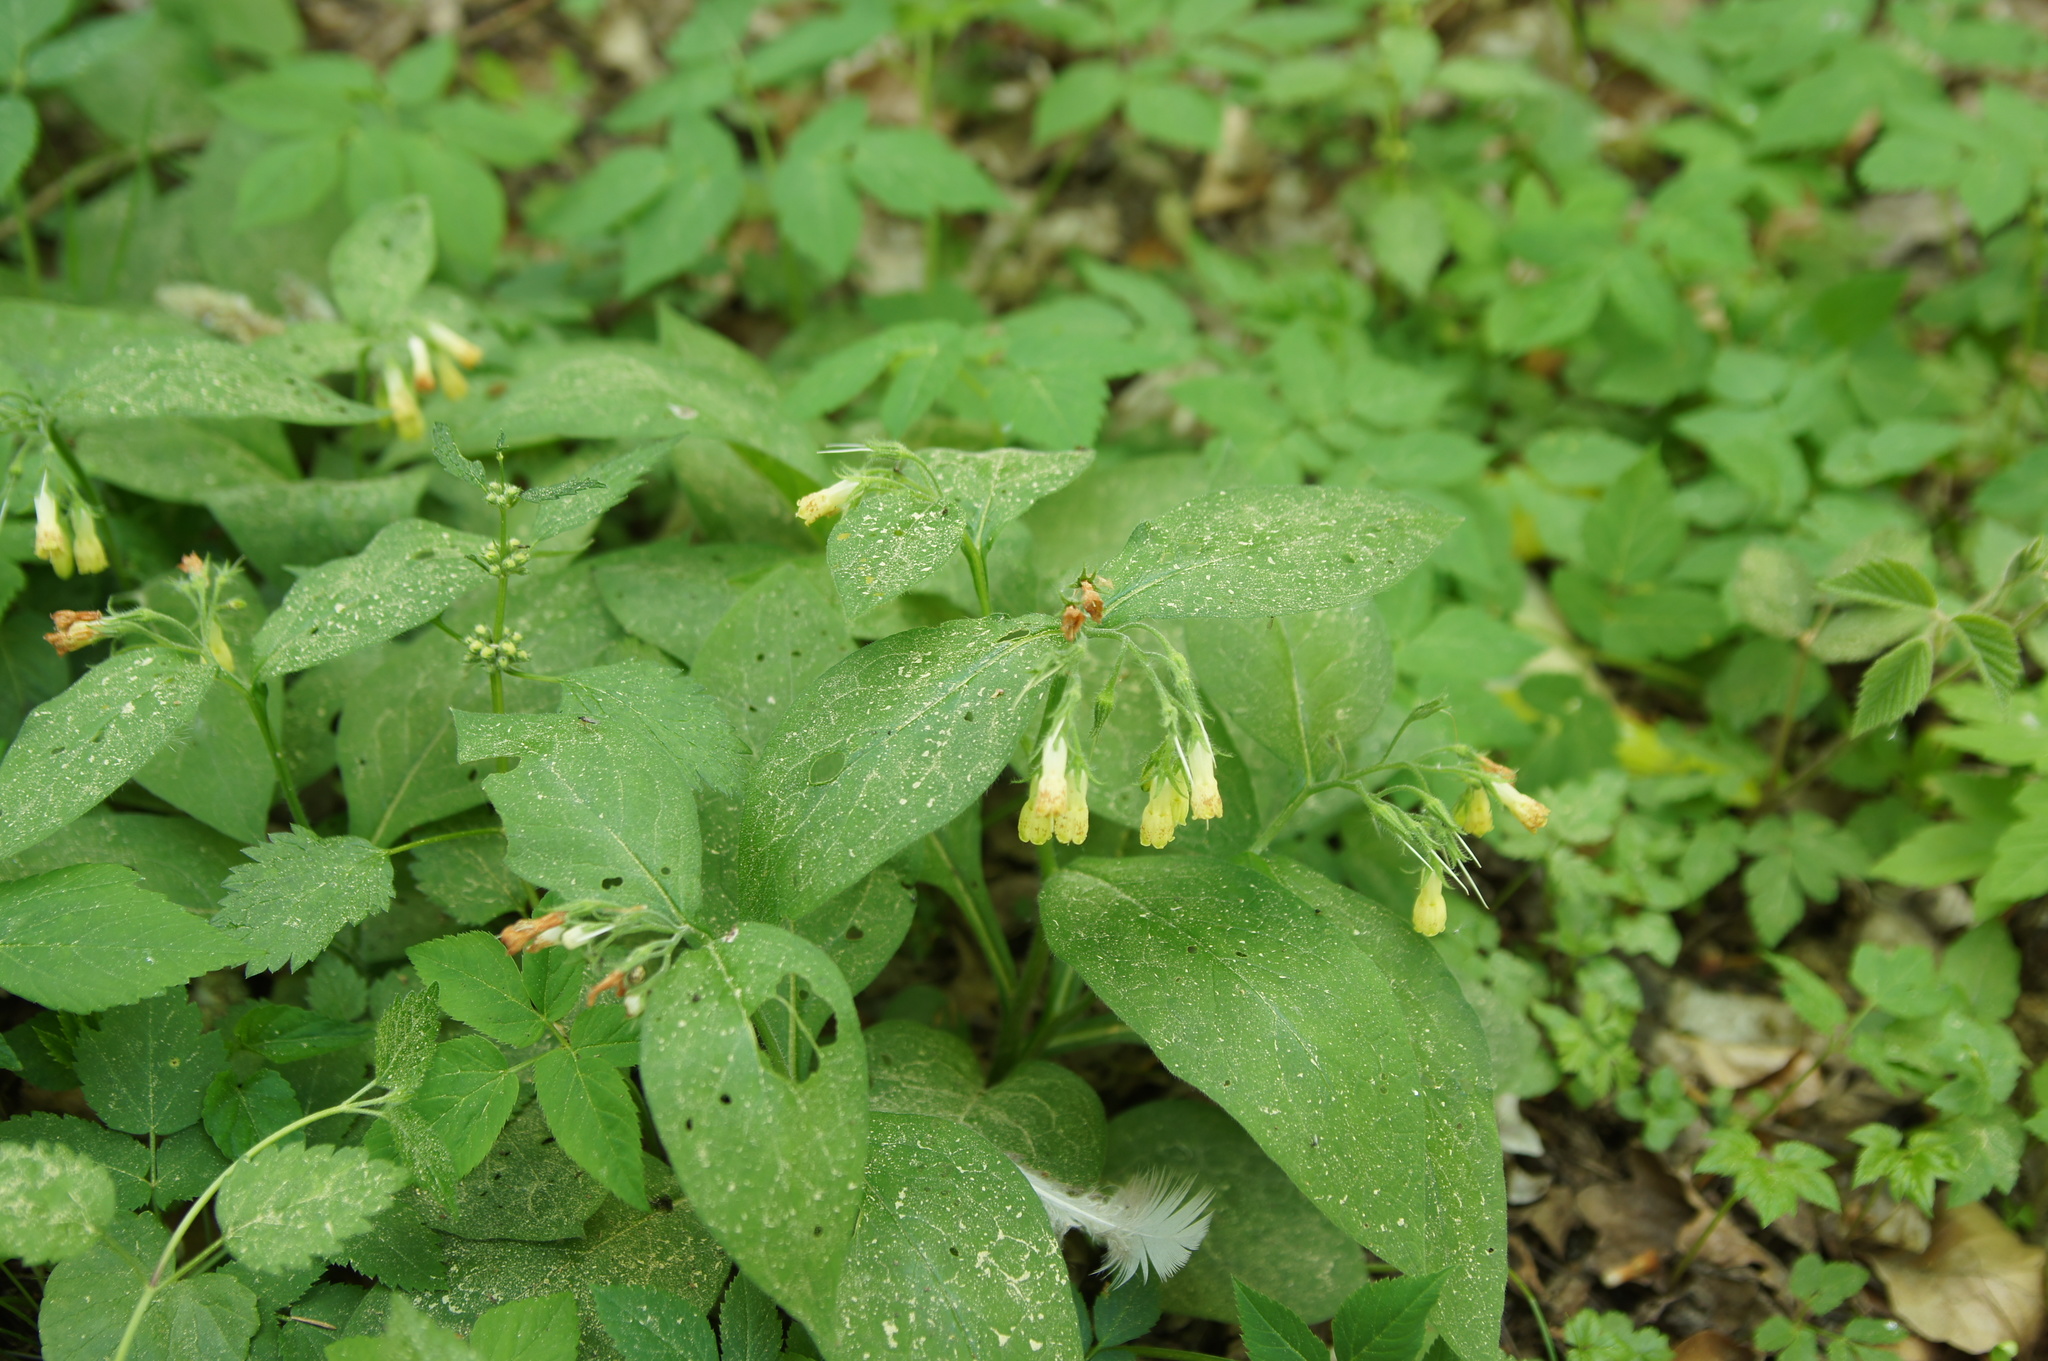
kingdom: Plantae
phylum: Tracheophyta
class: Magnoliopsida
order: Boraginales
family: Boraginaceae
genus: Symphytum
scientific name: Symphytum tuberosum
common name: Tuberous comfrey
